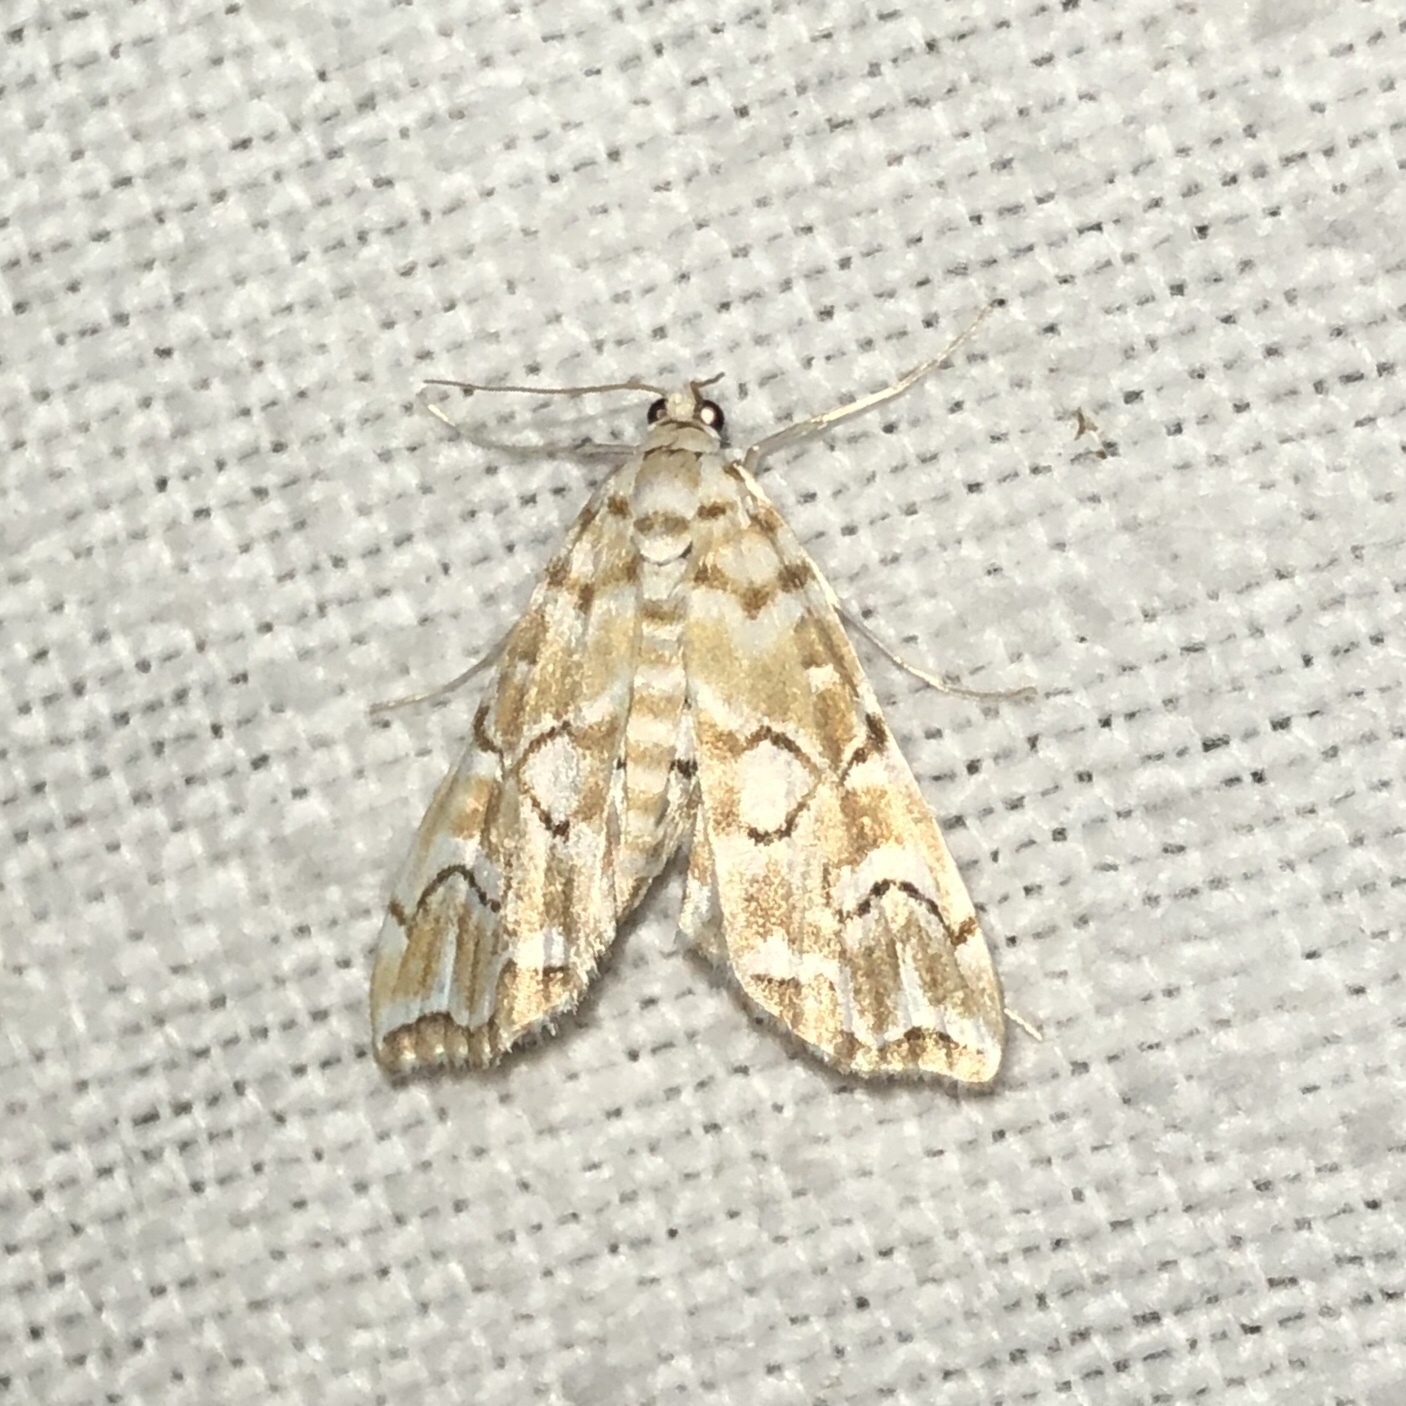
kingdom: Animalia
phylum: Arthropoda
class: Insecta
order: Lepidoptera
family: Crambidae
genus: Elophila
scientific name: Elophila icciusalis
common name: Pondside pyralid moth
